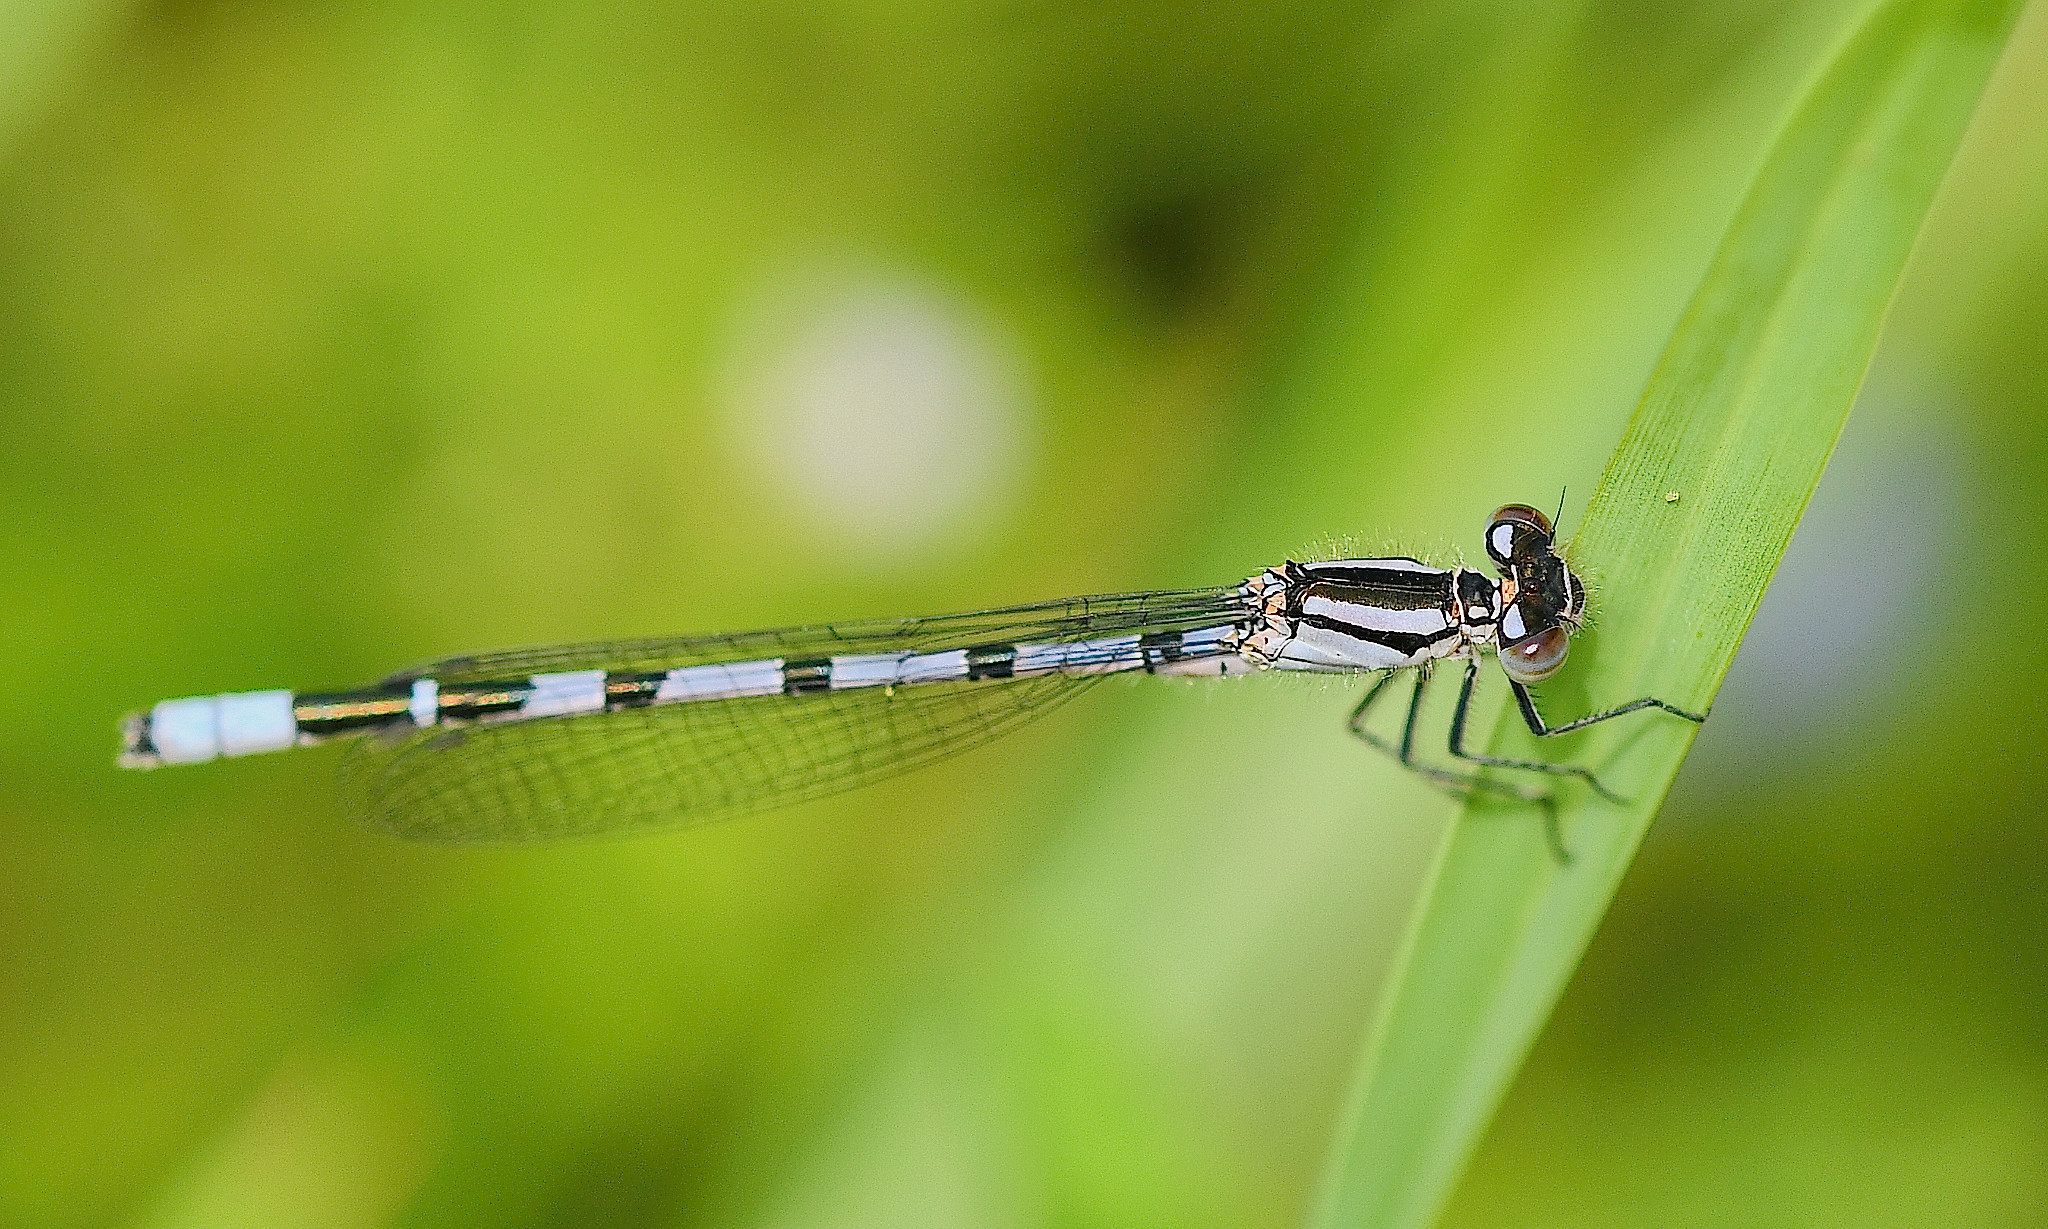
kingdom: Animalia
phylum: Arthropoda
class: Insecta
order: Odonata
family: Coenagrionidae
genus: Enallagma
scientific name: Enallagma cyathigerum
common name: Common blue damselfly
